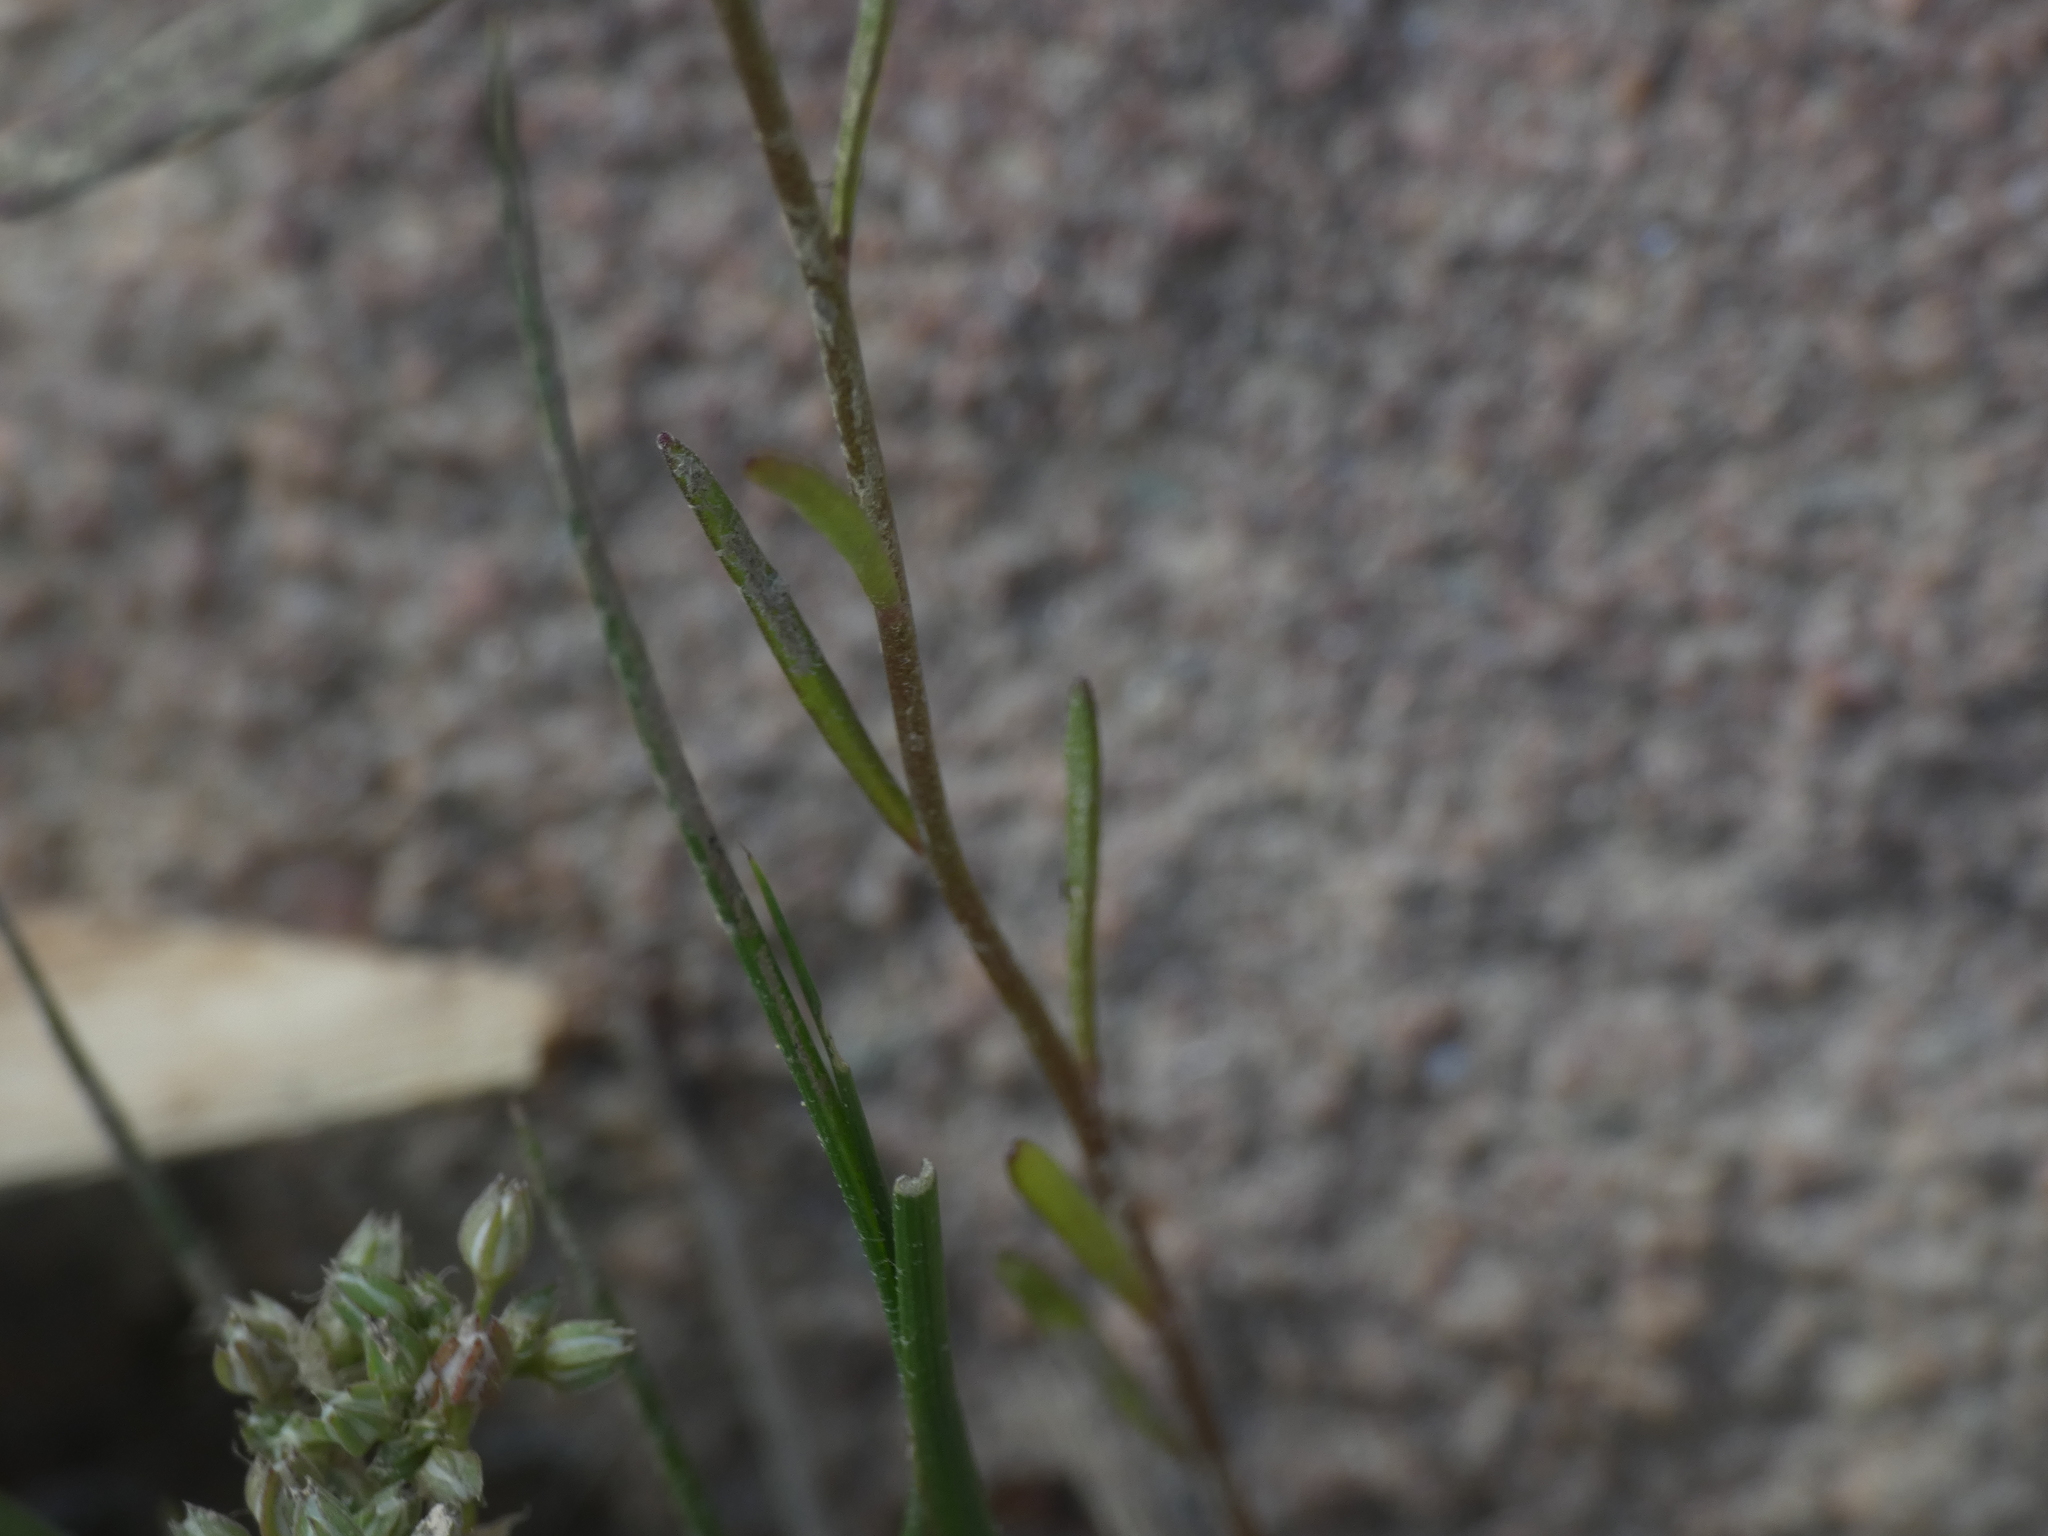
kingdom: Plantae
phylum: Tracheophyta
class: Magnoliopsida
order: Lamiales
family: Plantaginaceae
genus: Linaria
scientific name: Linaria pelisseriana
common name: Jersey toadflax
